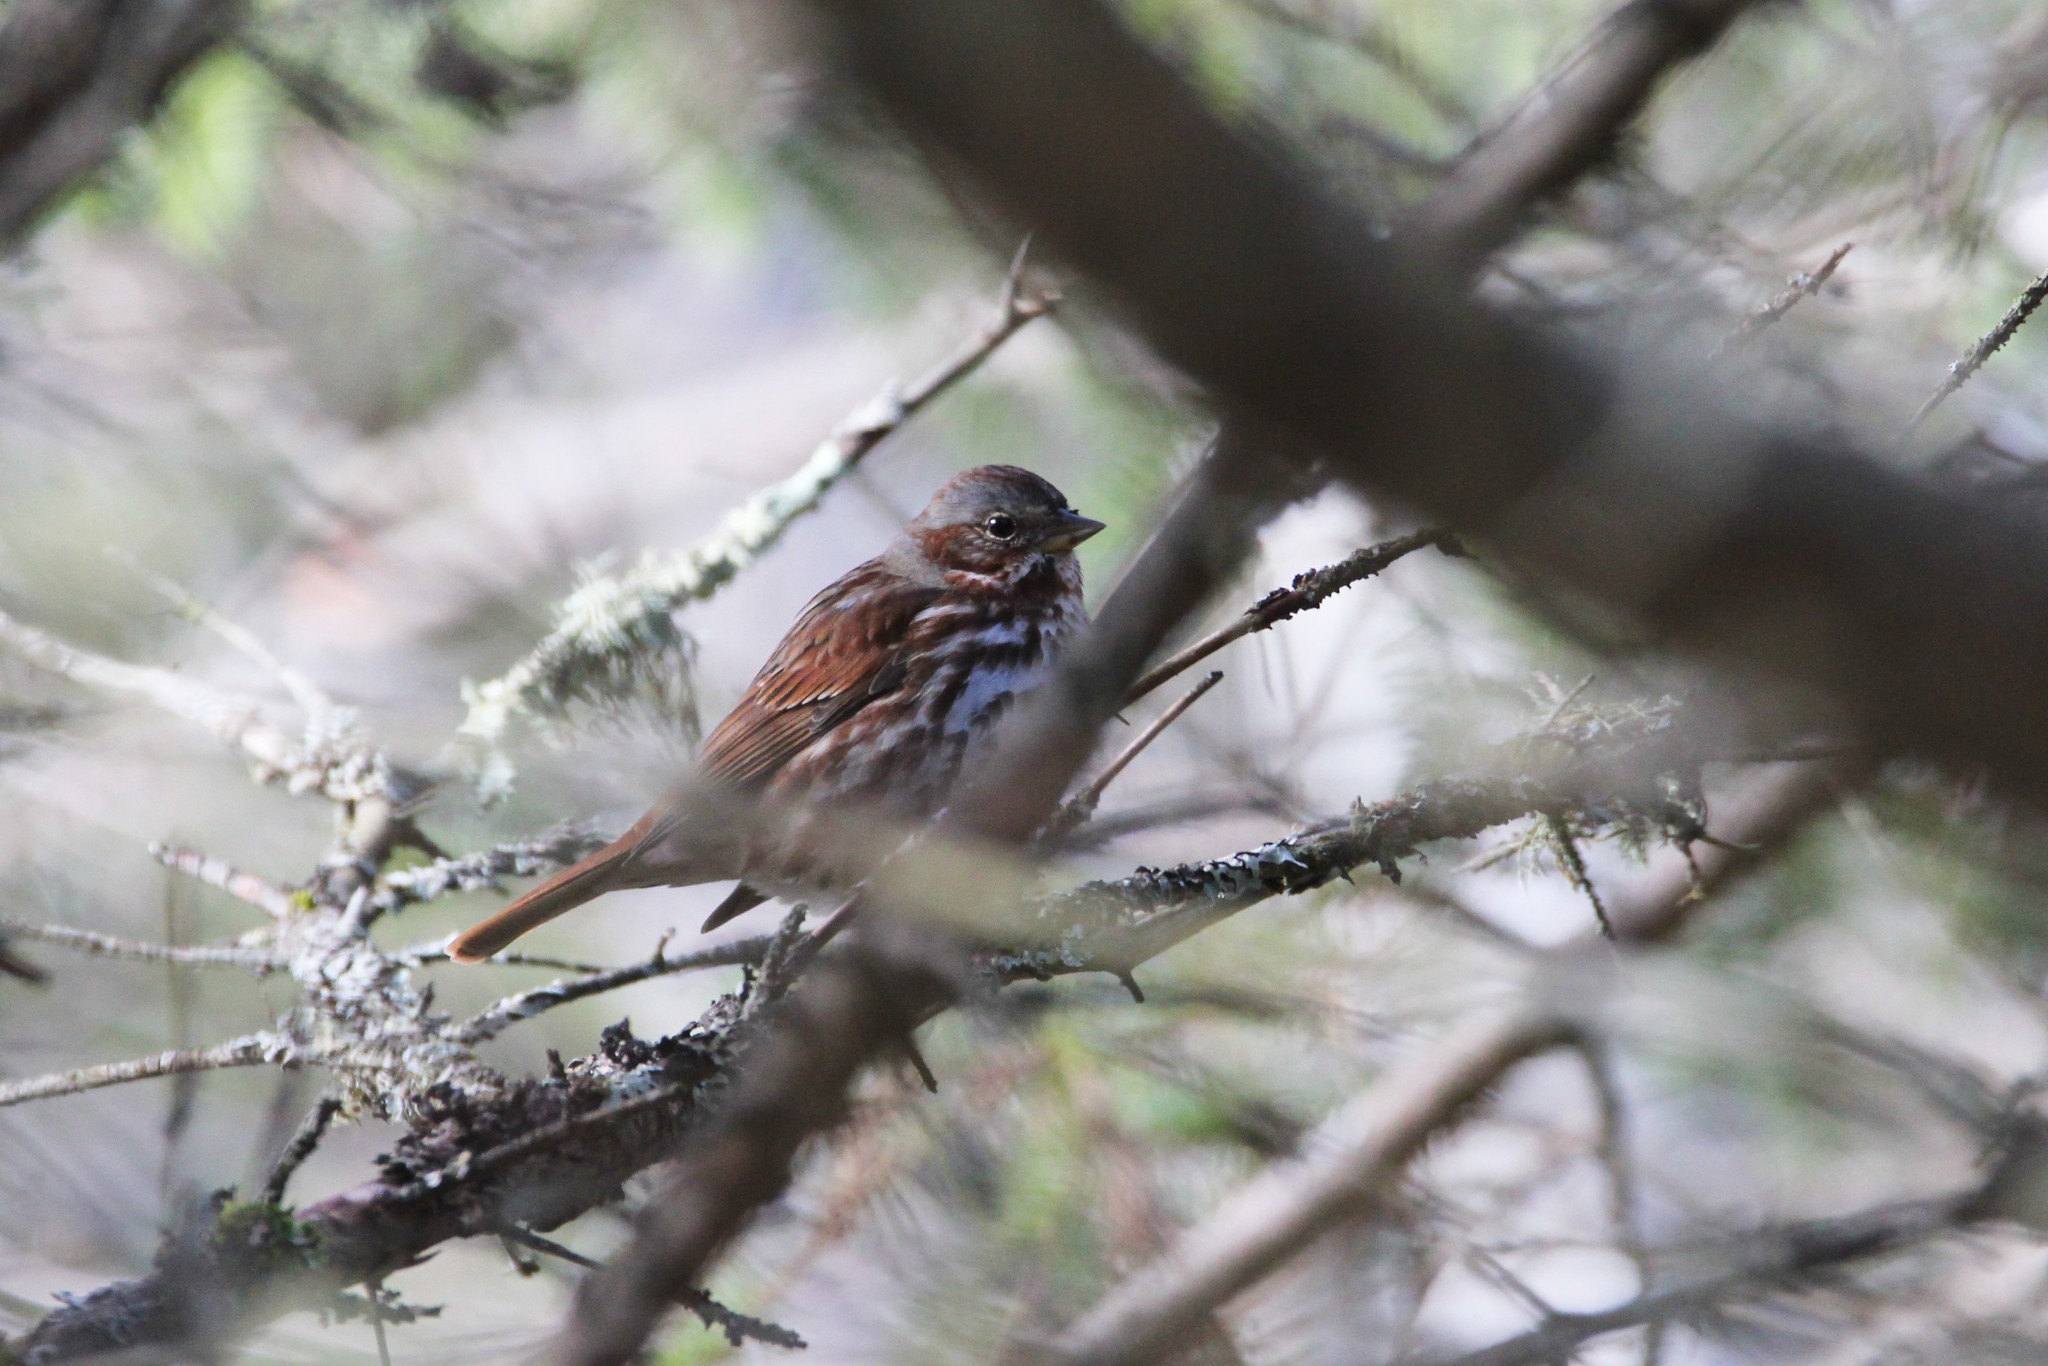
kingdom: Animalia
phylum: Chordata
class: Aves
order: Passeriformes
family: Passerellidae
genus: Passerella
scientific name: Passerella iliaca
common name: Fox sparrow
